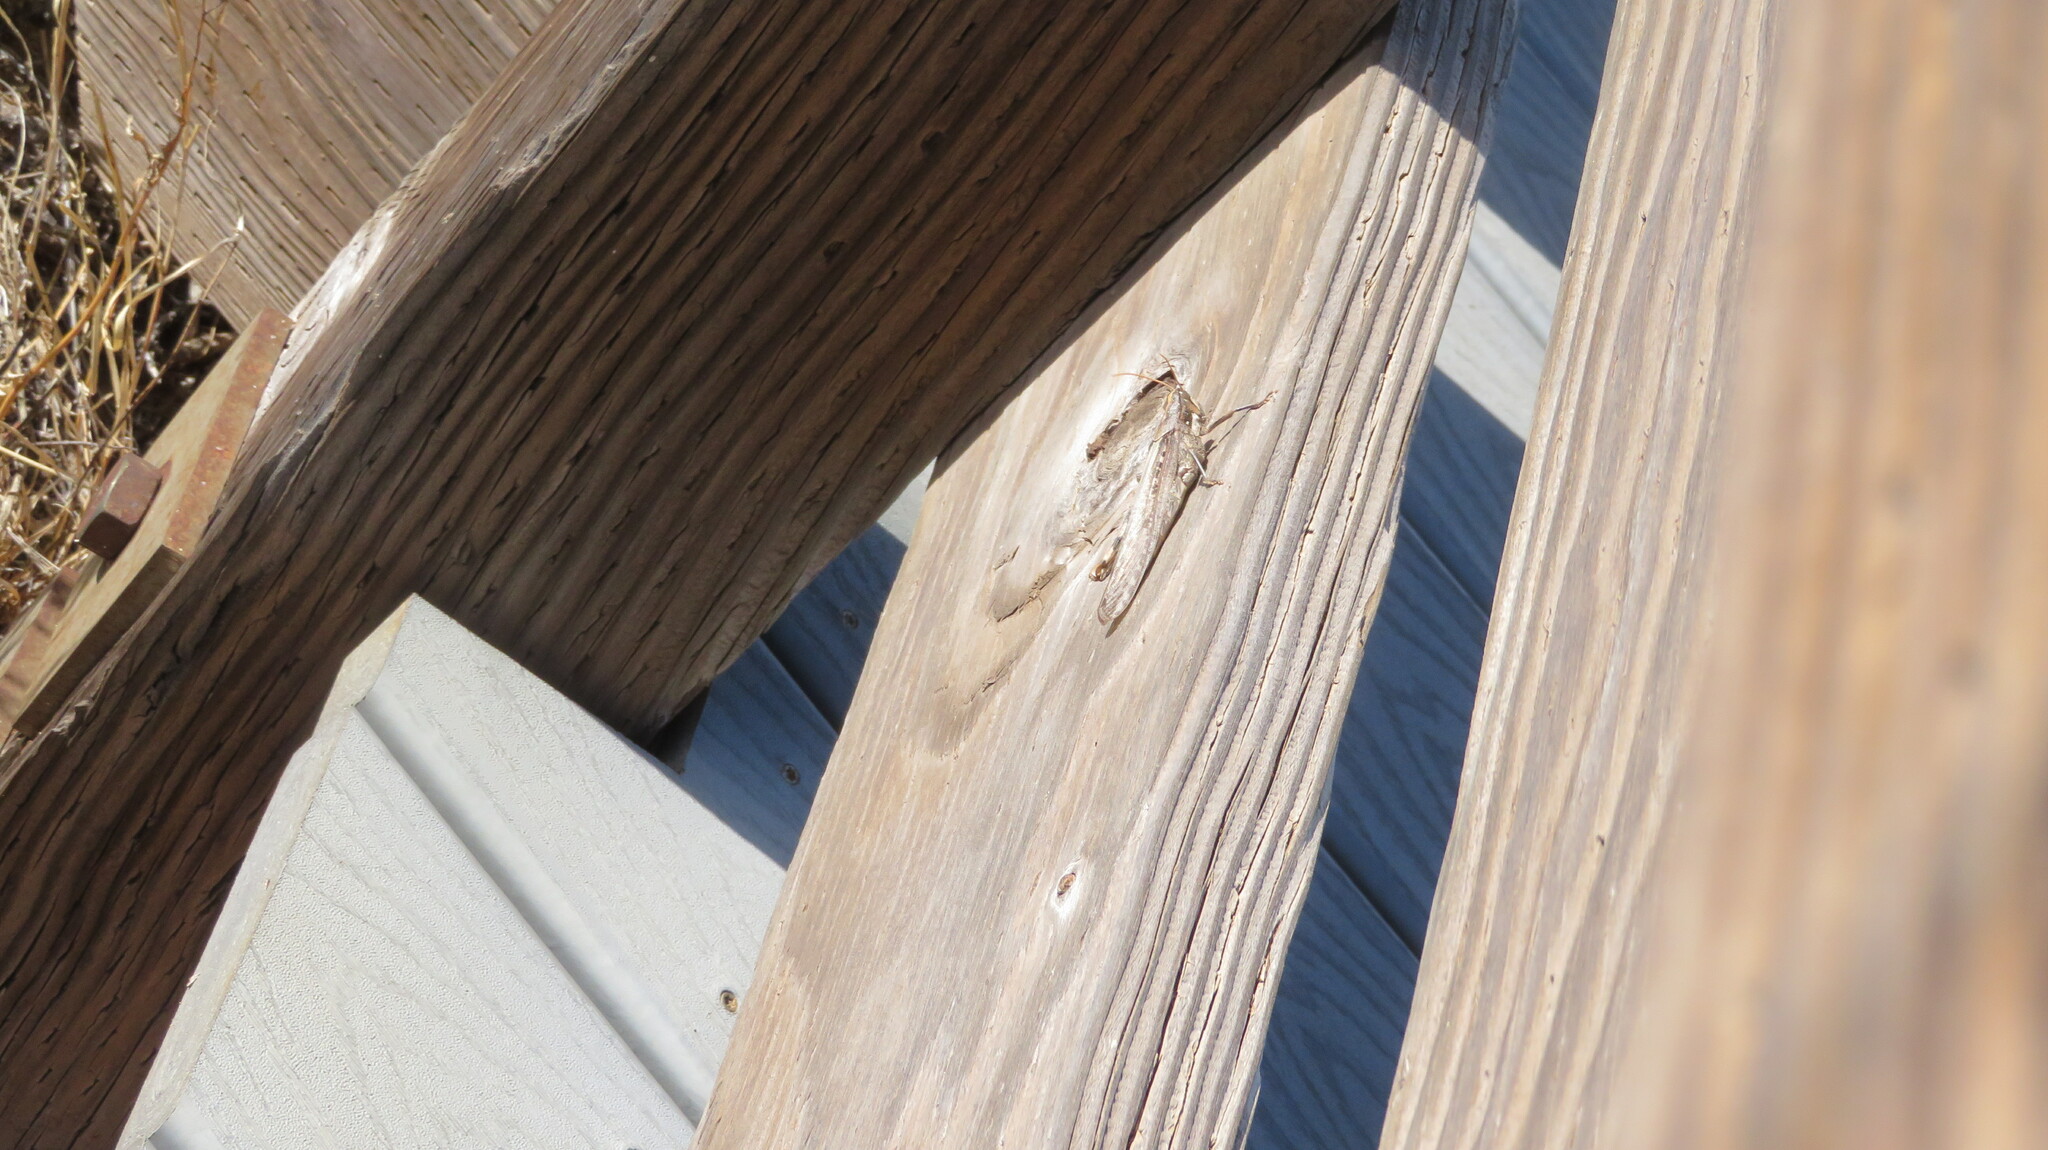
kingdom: Animalia
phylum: Arthropoda
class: Insecta
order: Orthoptera
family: Acrididae
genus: Schistocerca
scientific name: Schistocerca nitens
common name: Vagrant grasshopper
